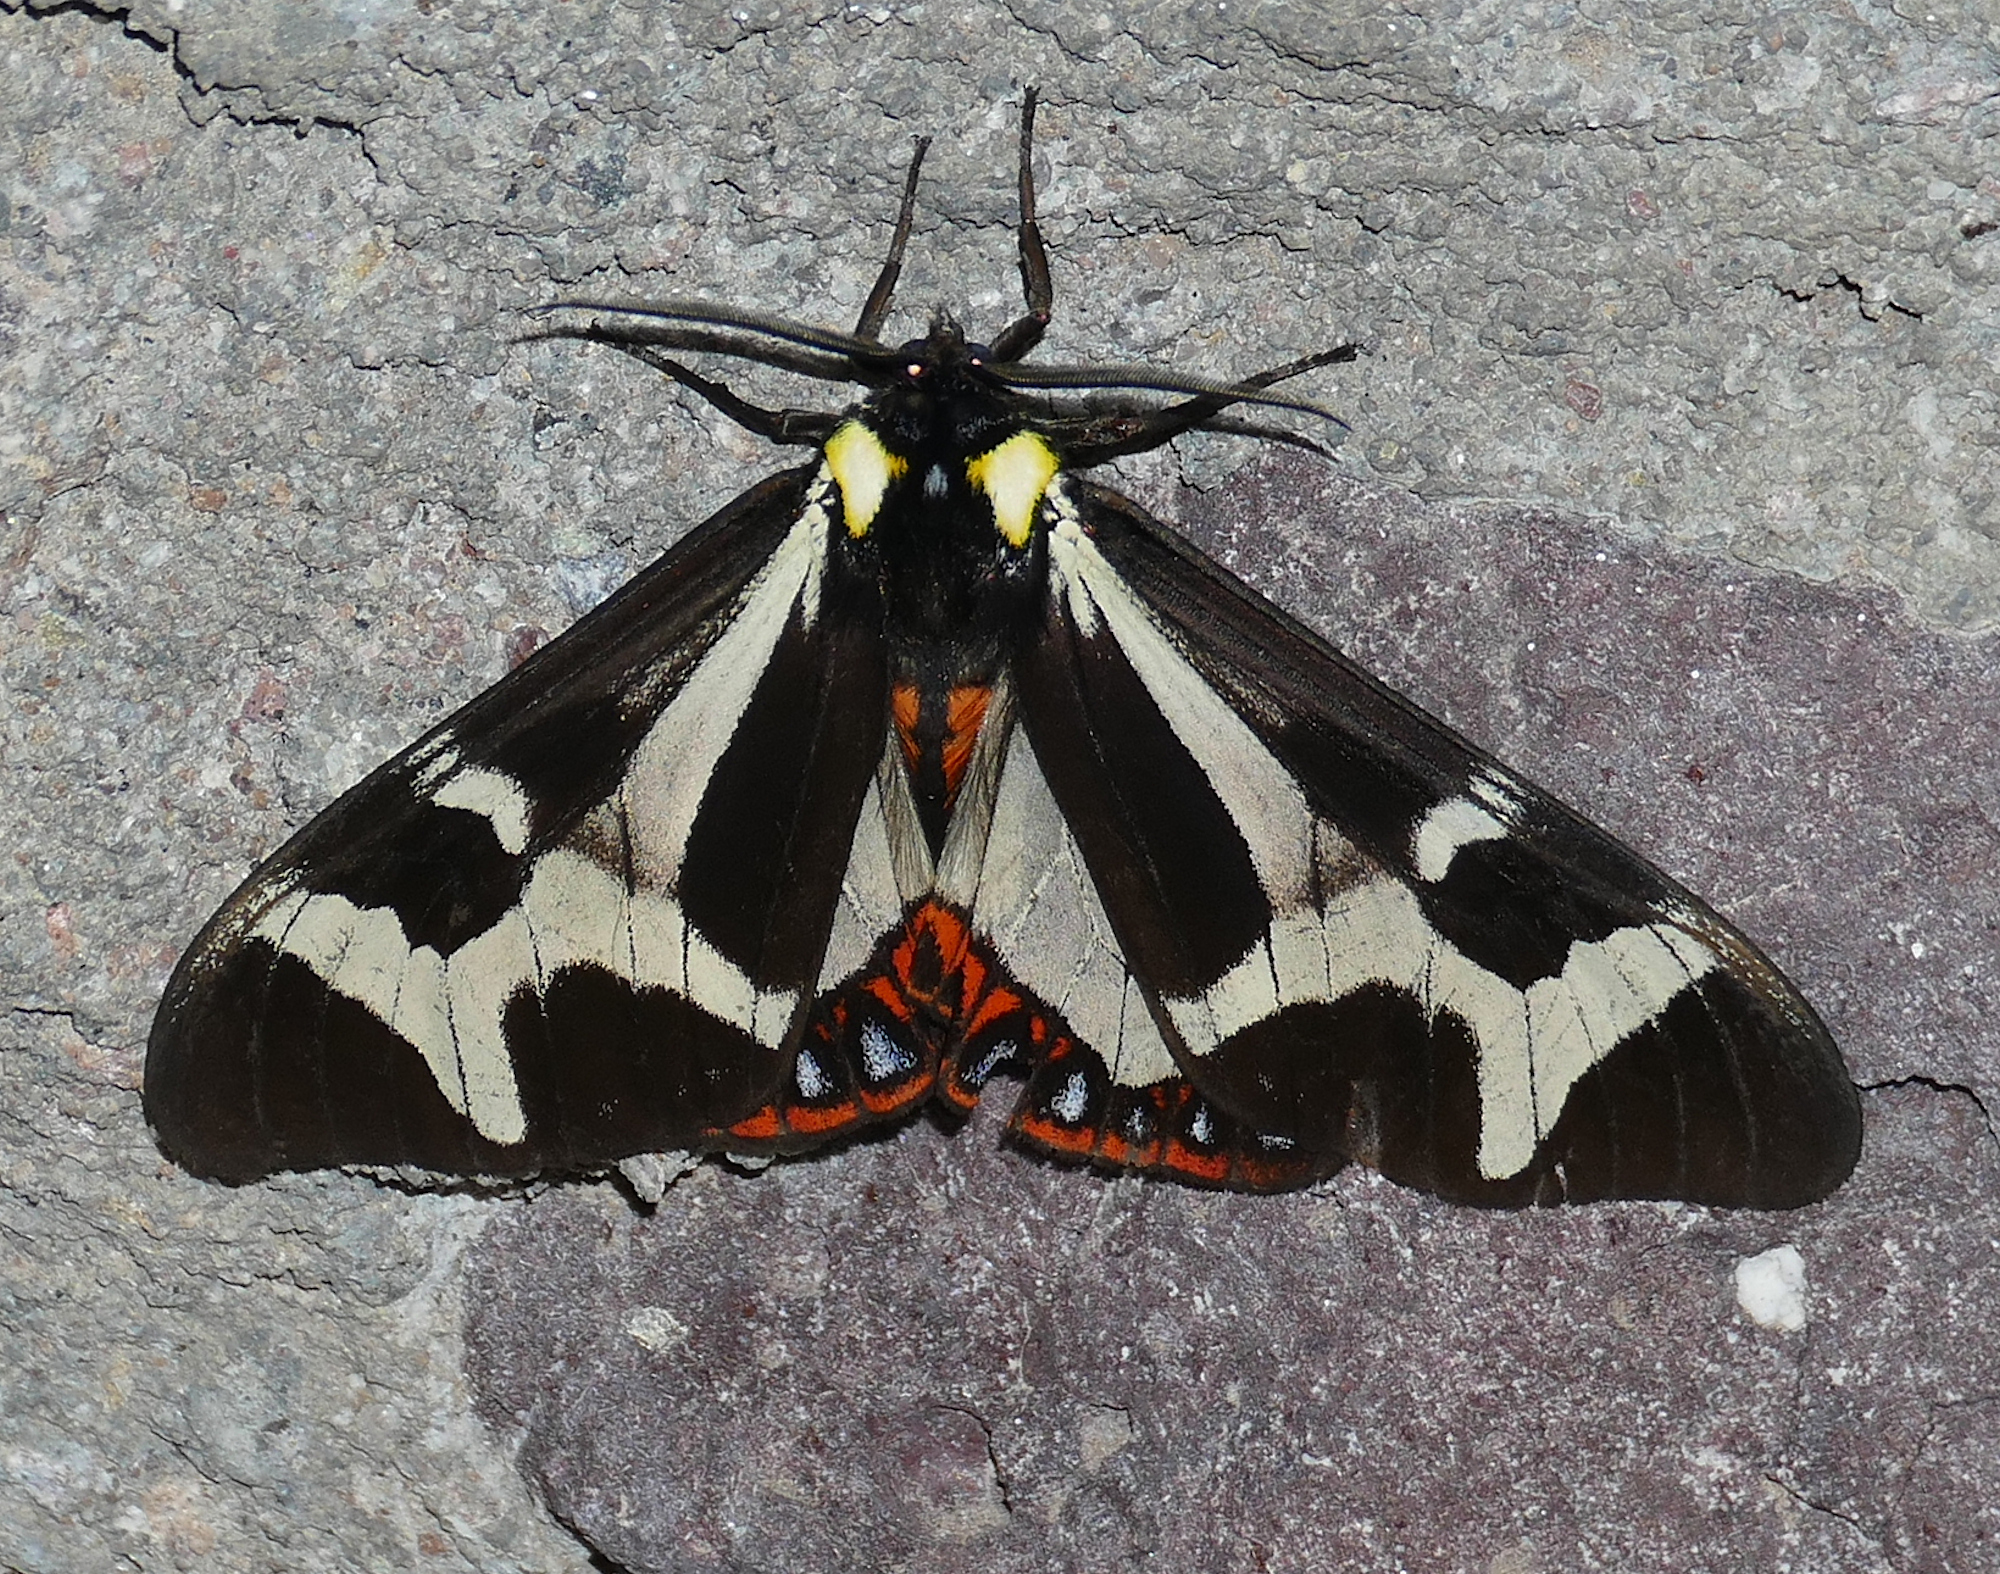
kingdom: Animalia
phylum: Arthropoda
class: Insecta
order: Lepidoptera
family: Erebidae
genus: Dysschema
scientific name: Dysschema howardi
